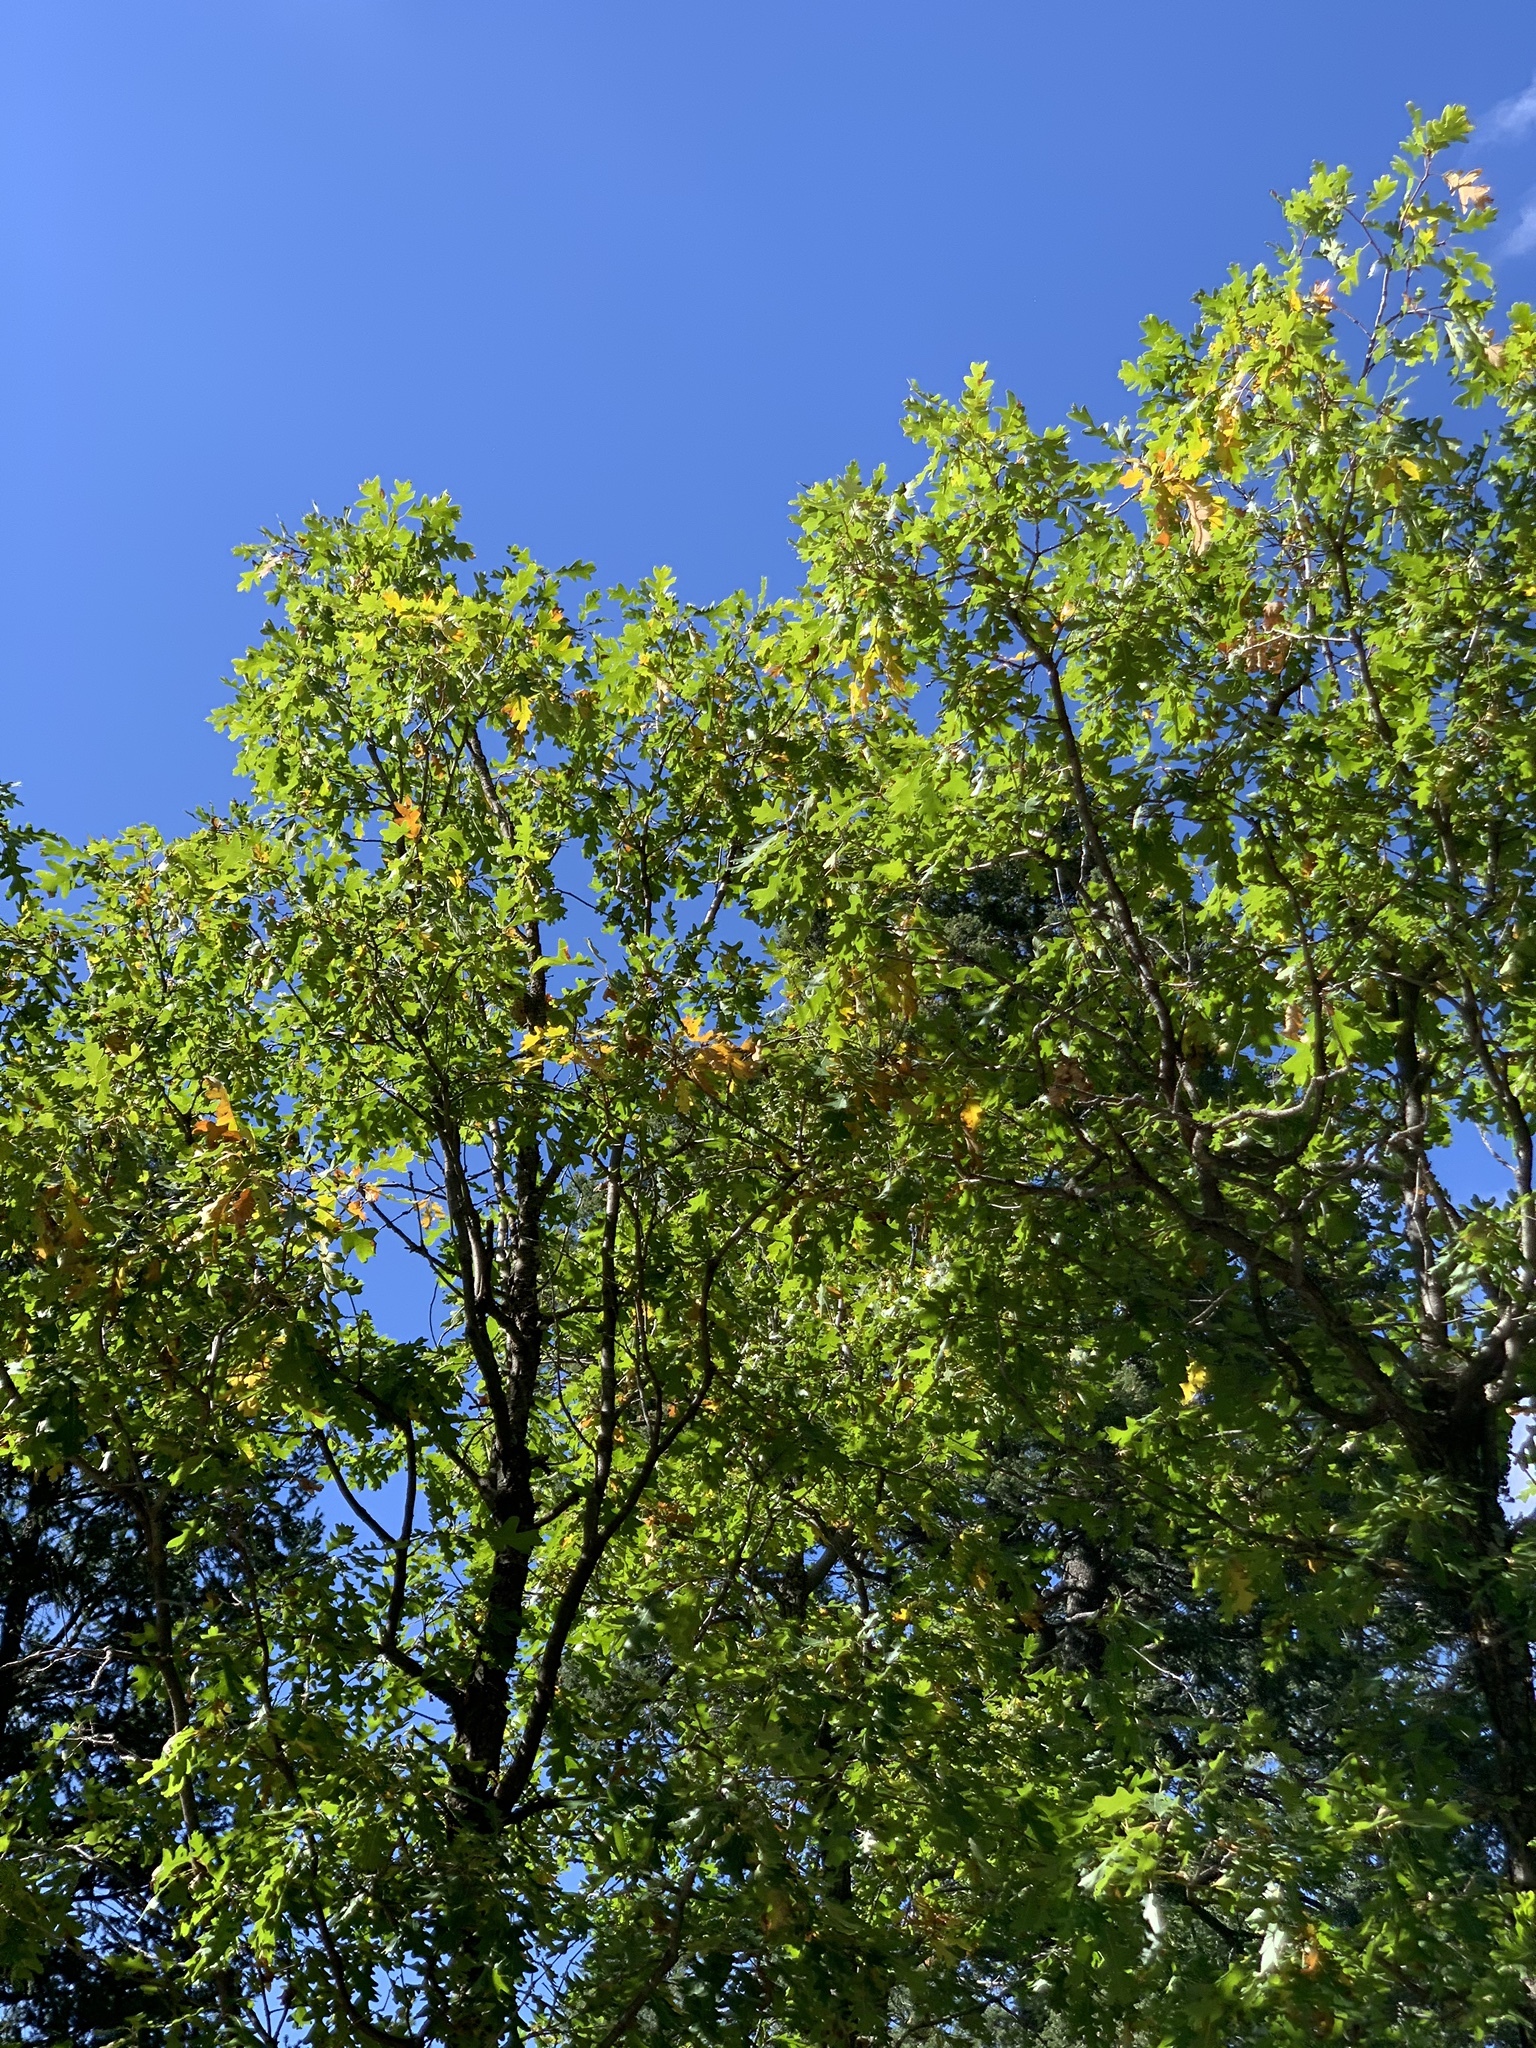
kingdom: Plantae
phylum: Tracheophyta
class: Magnoliopsida
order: Fagales
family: Fagaceae
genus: Quercus
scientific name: Quercus gambelii
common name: Gambel oak
